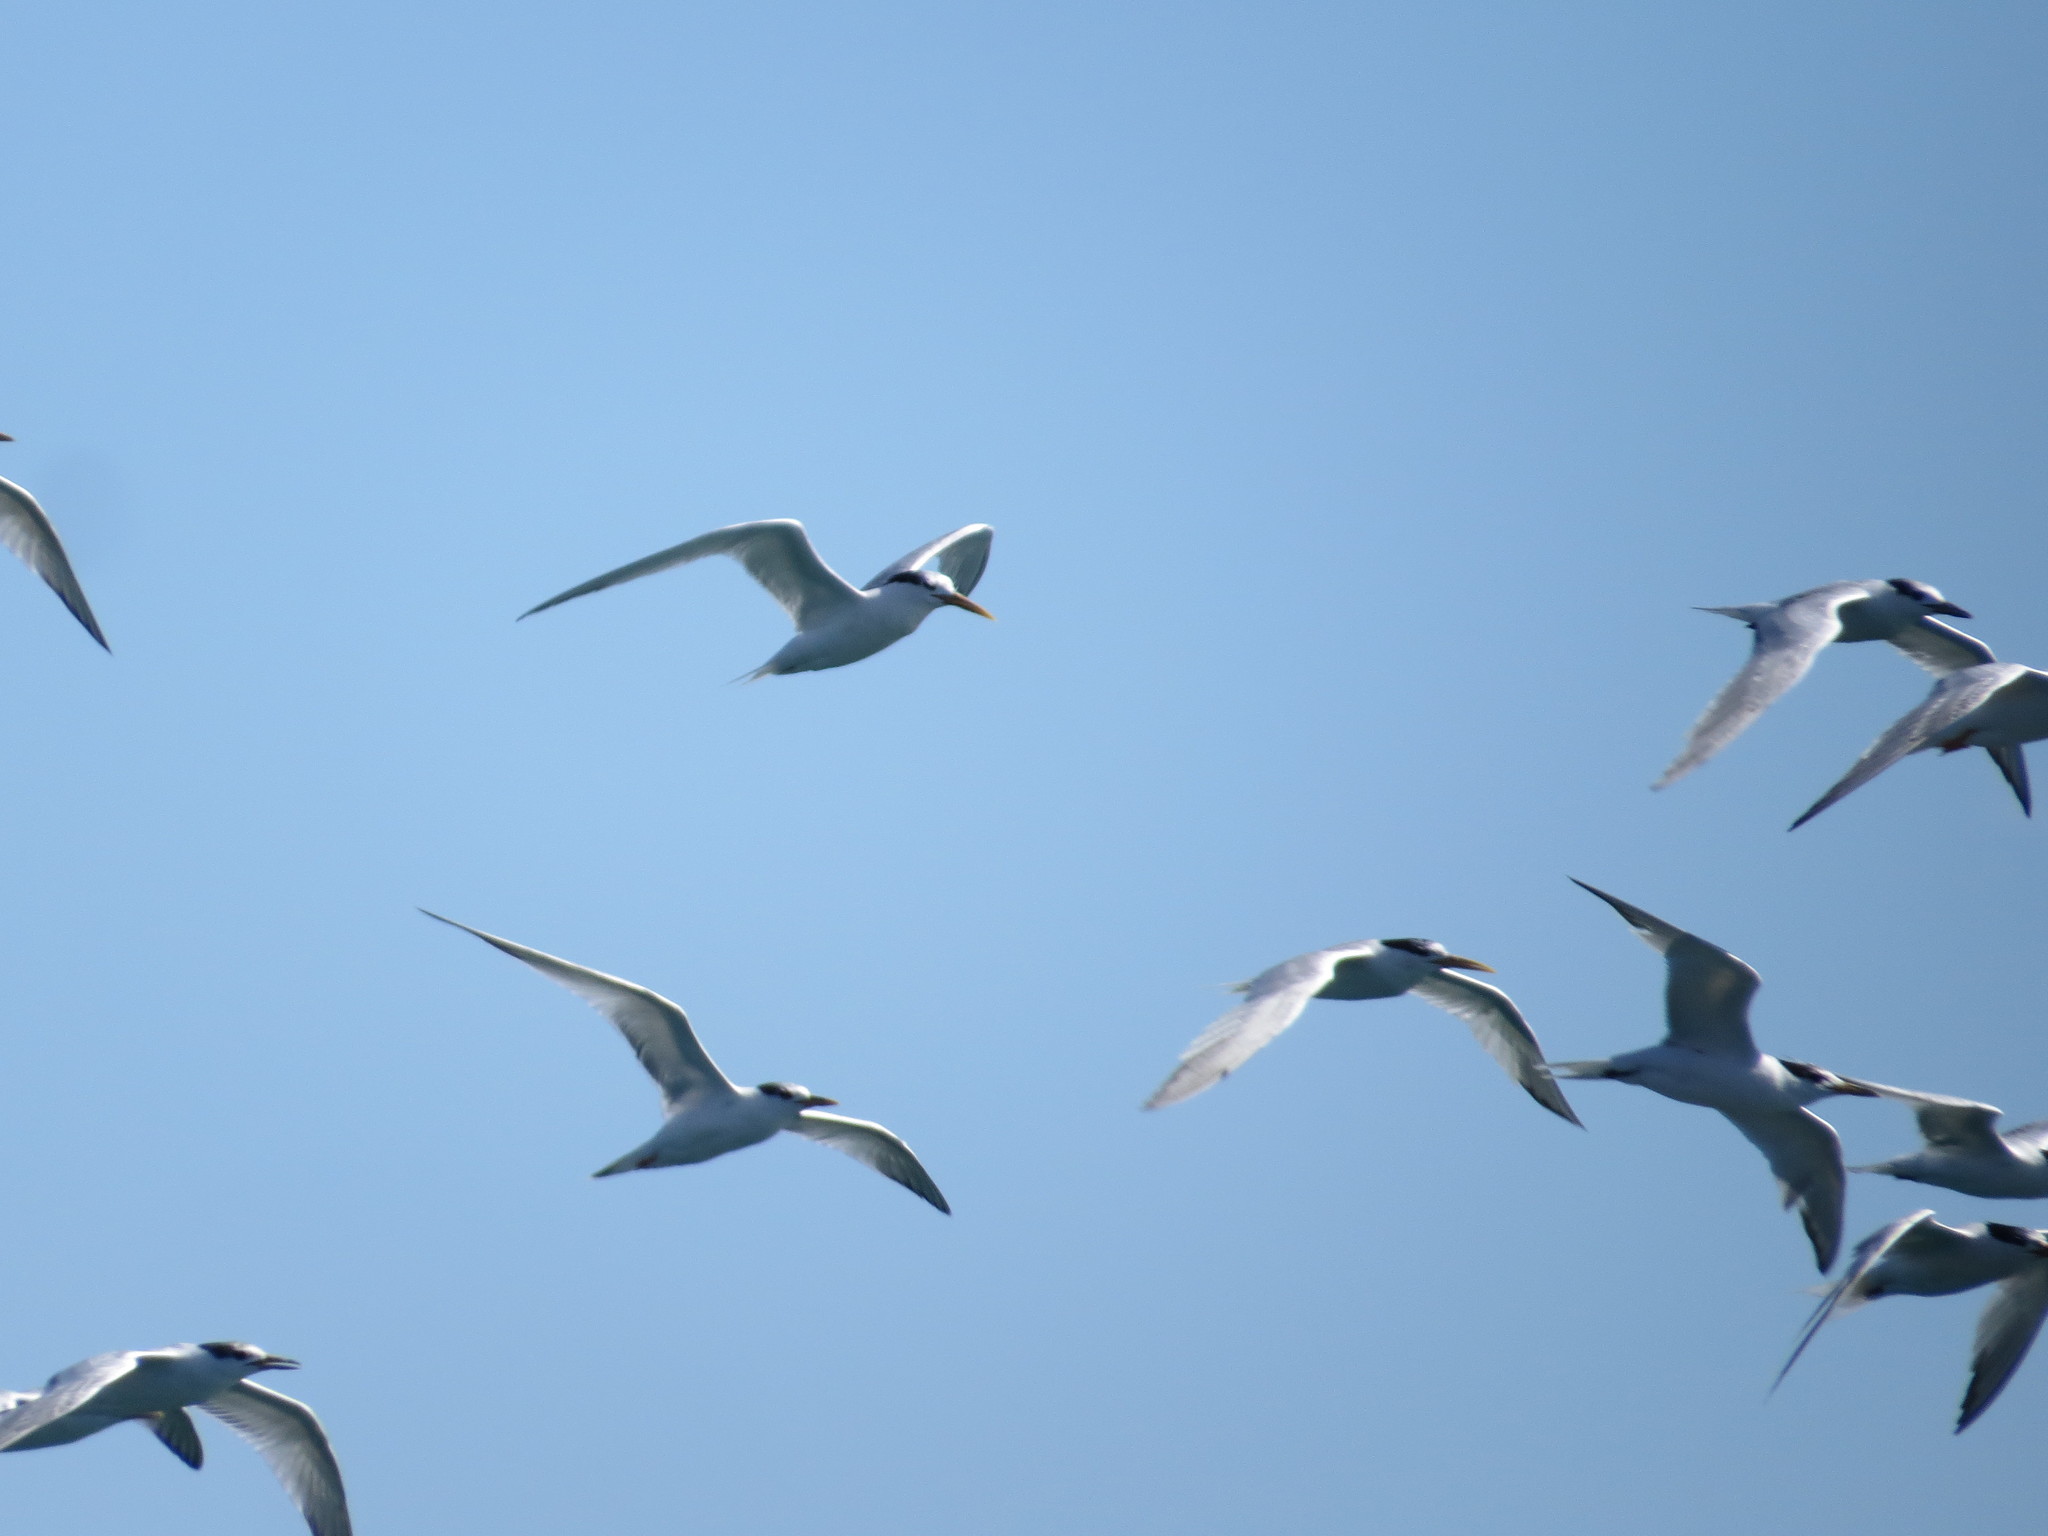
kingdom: Animalia
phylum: Chordata
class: Aves
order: Charadriiformes
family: Laridae
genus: Thalasseus
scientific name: Thalasseus sandvicensis
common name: Sandwich tern
